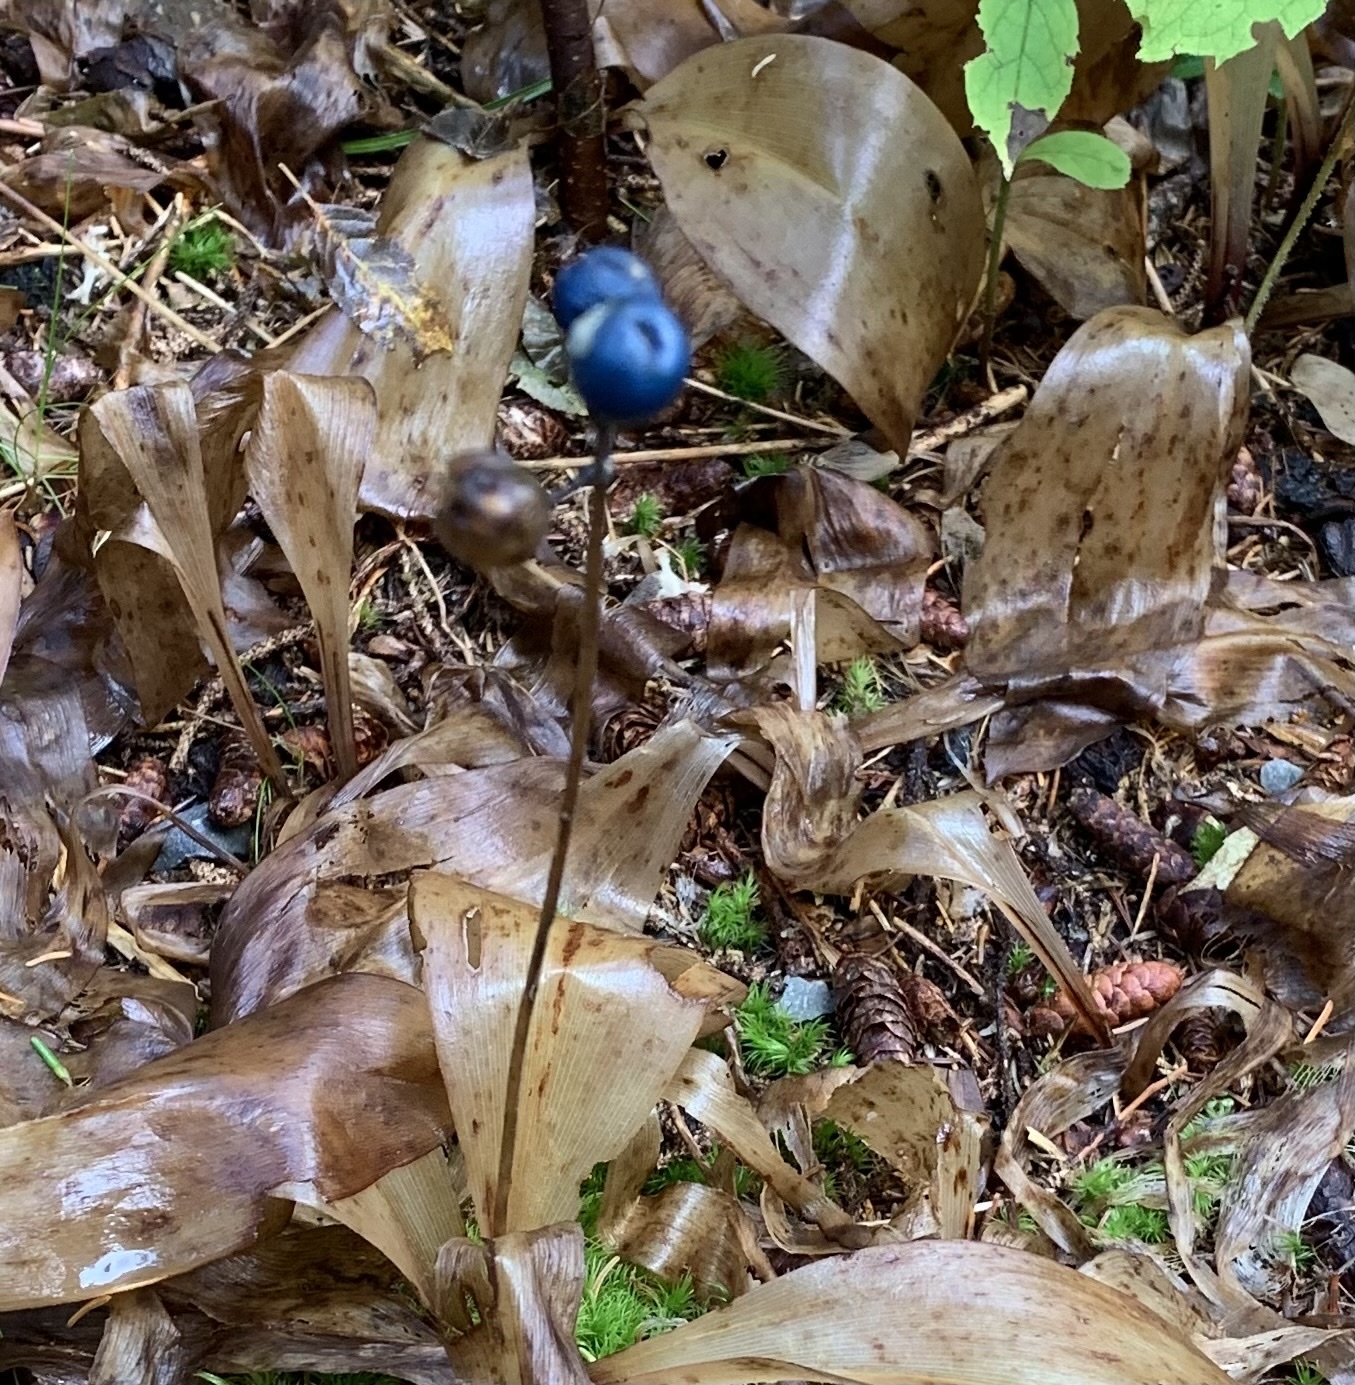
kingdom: Plantae
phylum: Tracheophyta
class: Liliopsida
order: Liliales
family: Liliaceae
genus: Clintonia
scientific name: Clintonia borealis
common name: Yellow clintonia
